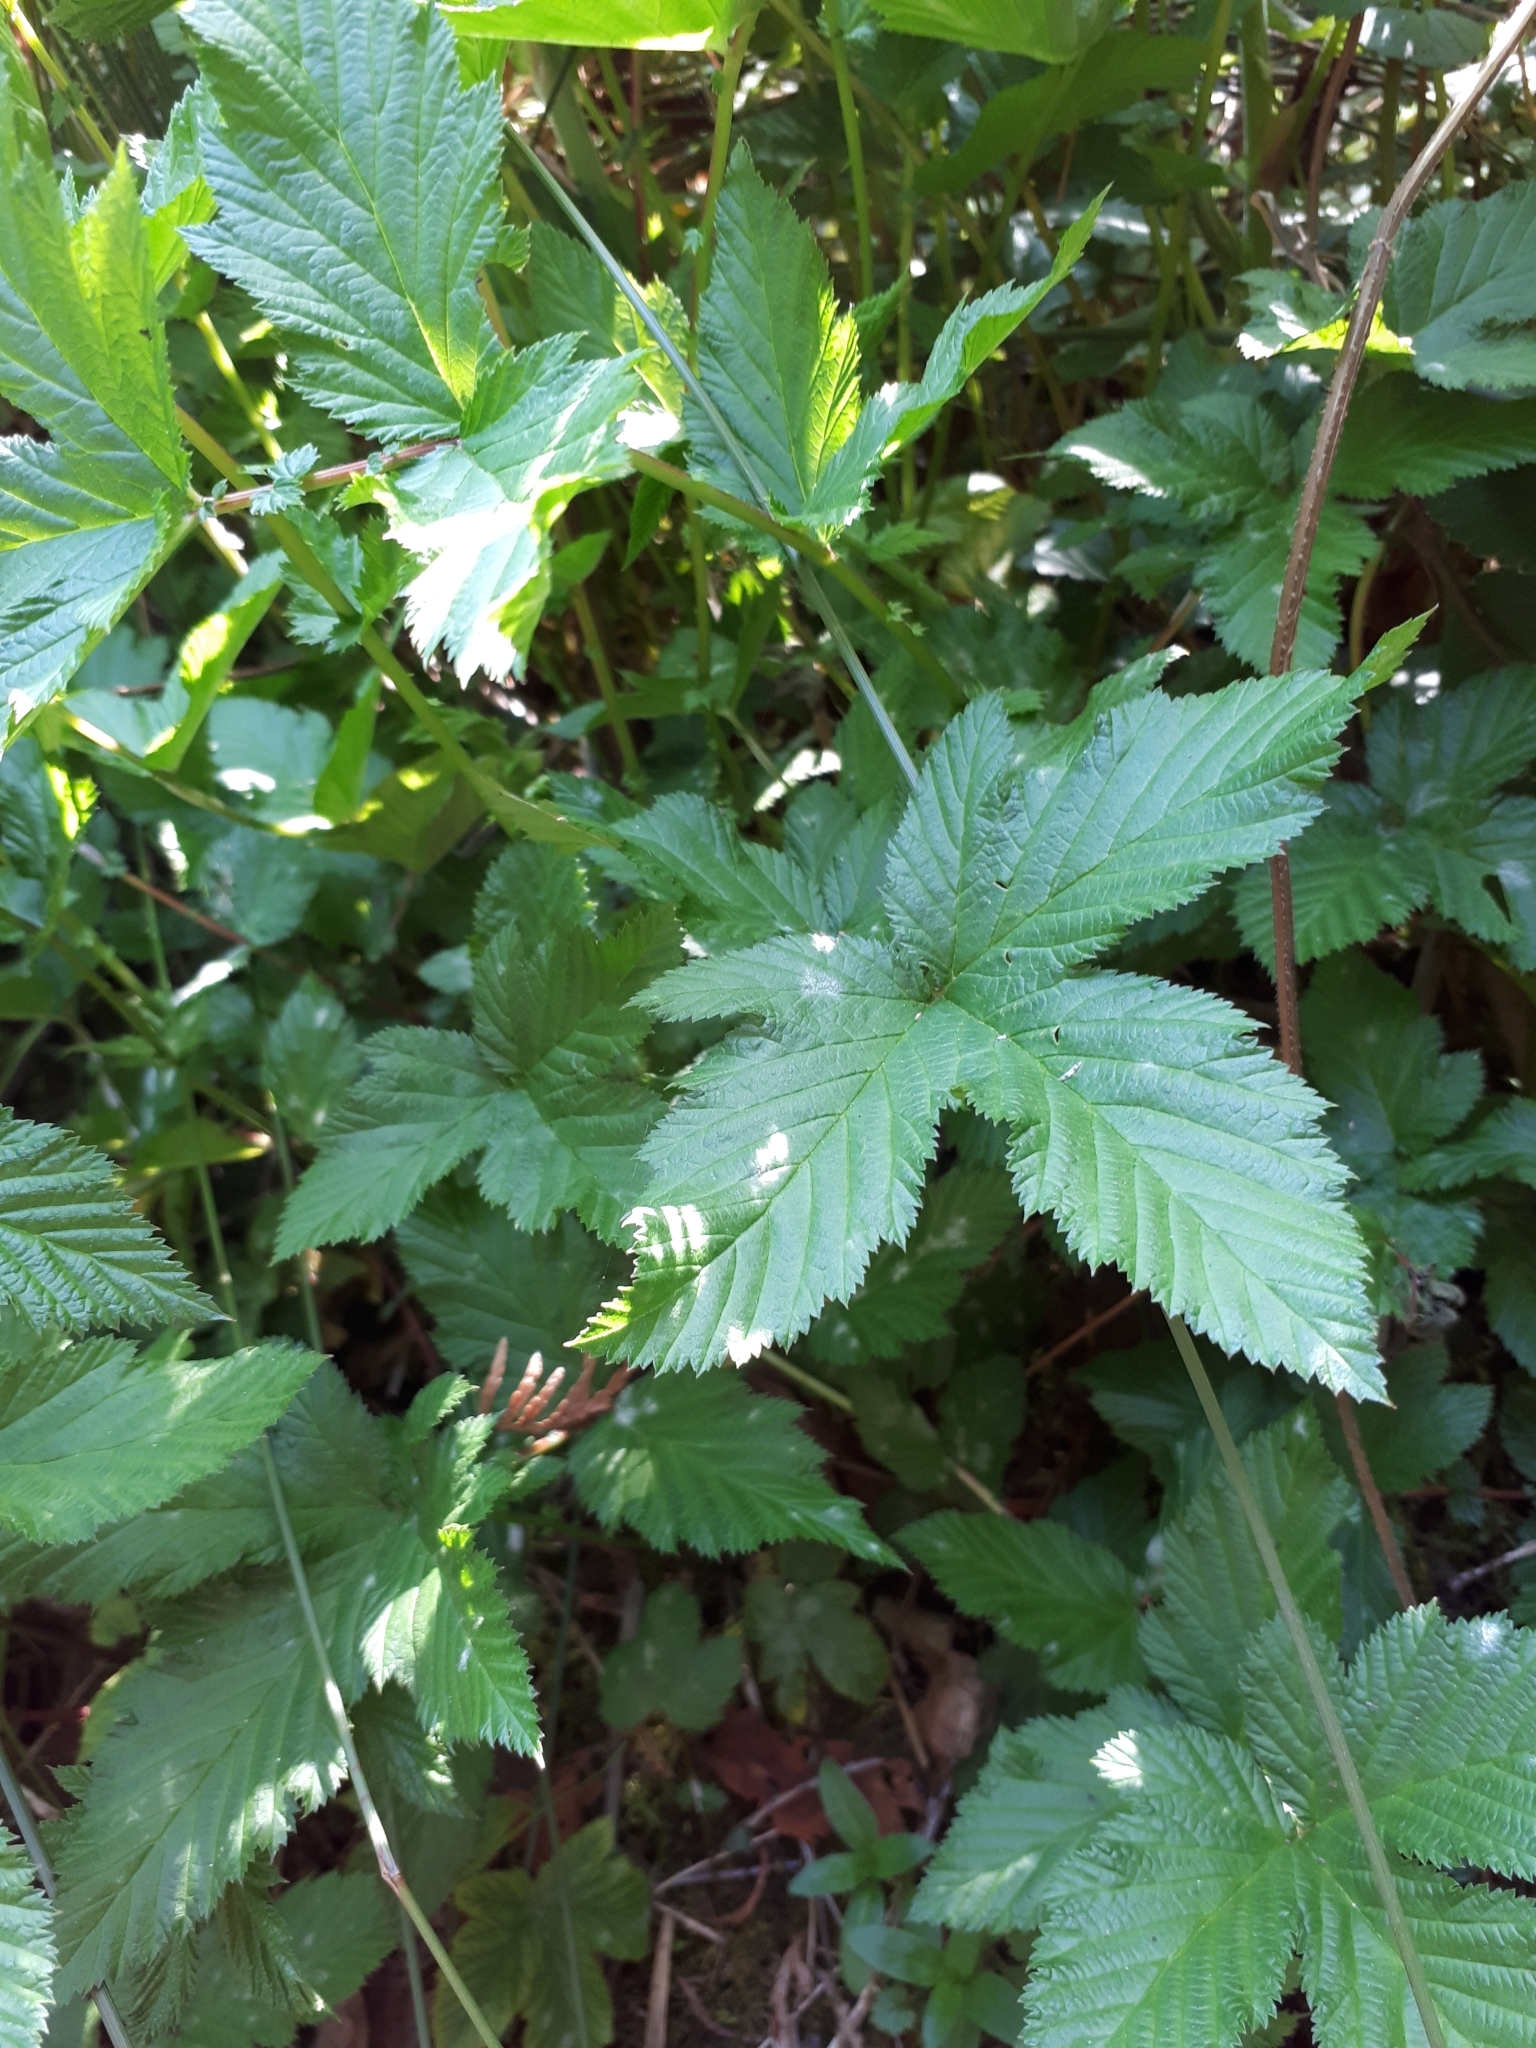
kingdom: Plantae
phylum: Tracheophyta
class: Magnoliopsida
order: Rosales
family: Rosaceae
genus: Filipendula
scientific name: Filipendula ulmaria
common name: Meadowsweet
